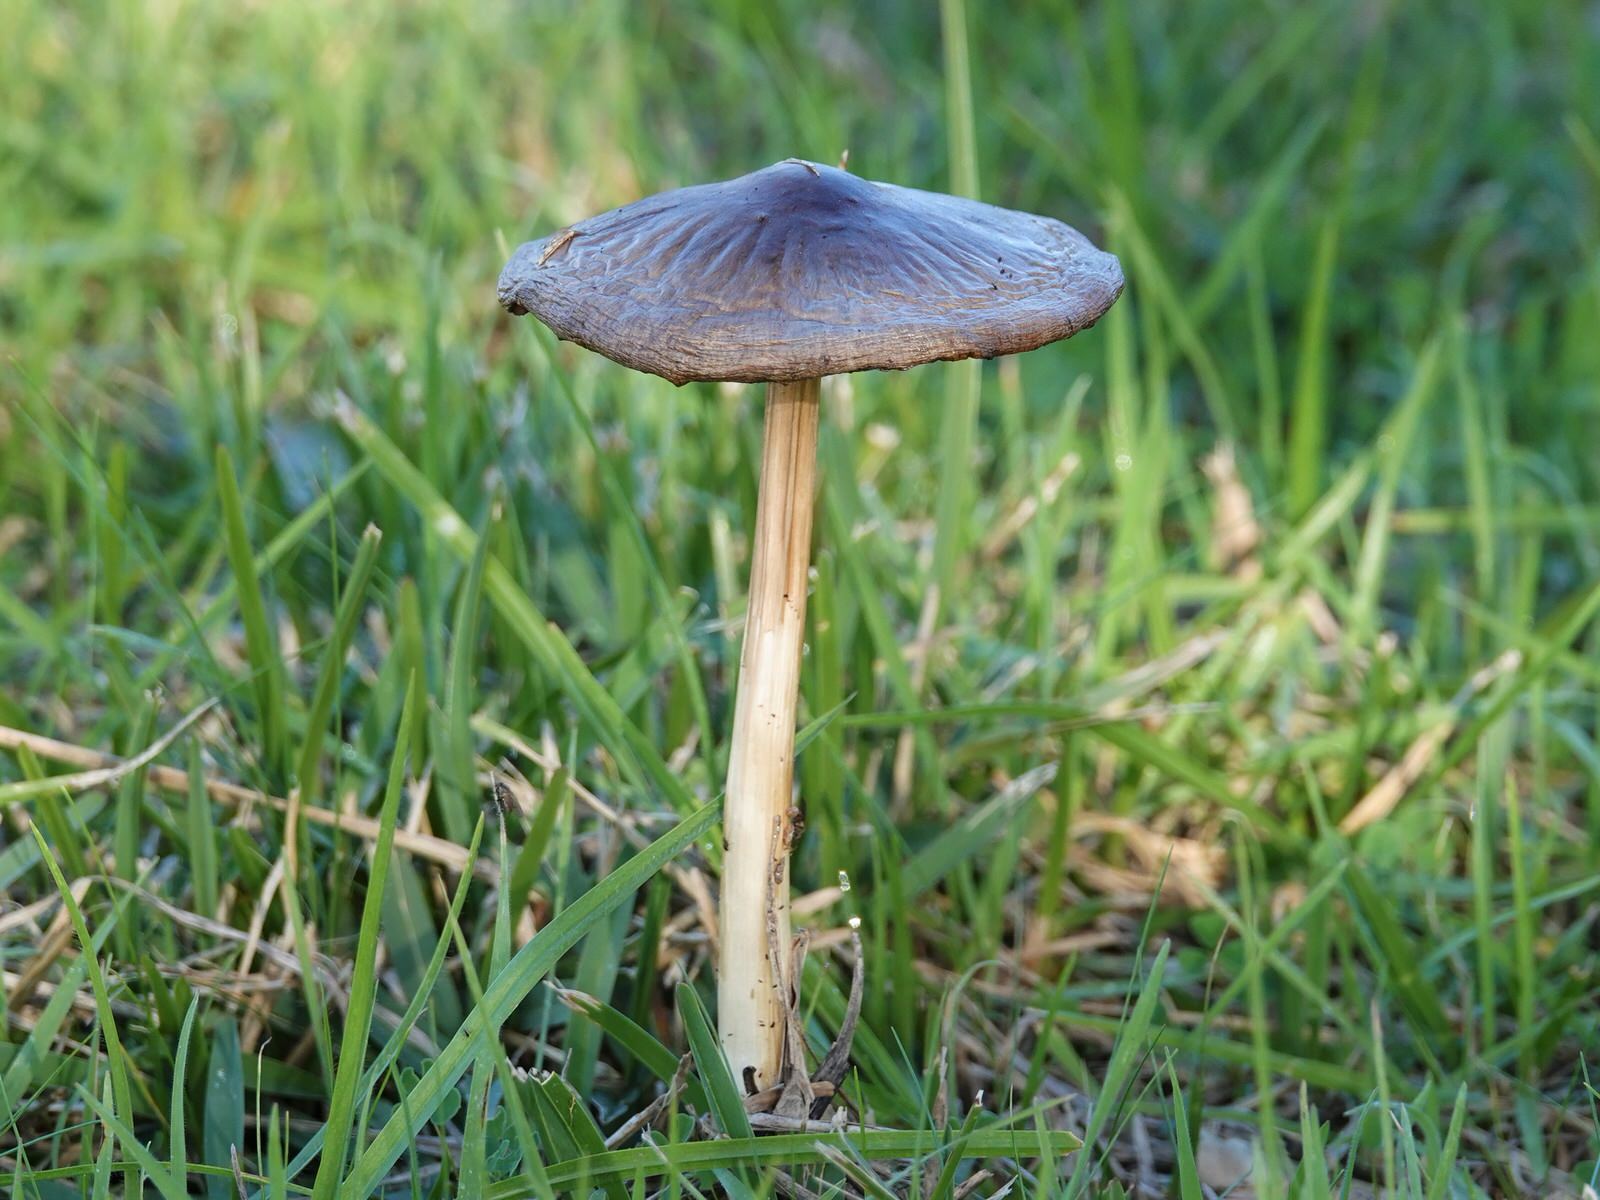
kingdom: Fungi
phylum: Basidiomycota
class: Agaricomycetes
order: Agaricales
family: Pluteaceae
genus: Volvopluteus
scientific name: Volvopluteus gloiocephalus
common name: Stubble rosegill
